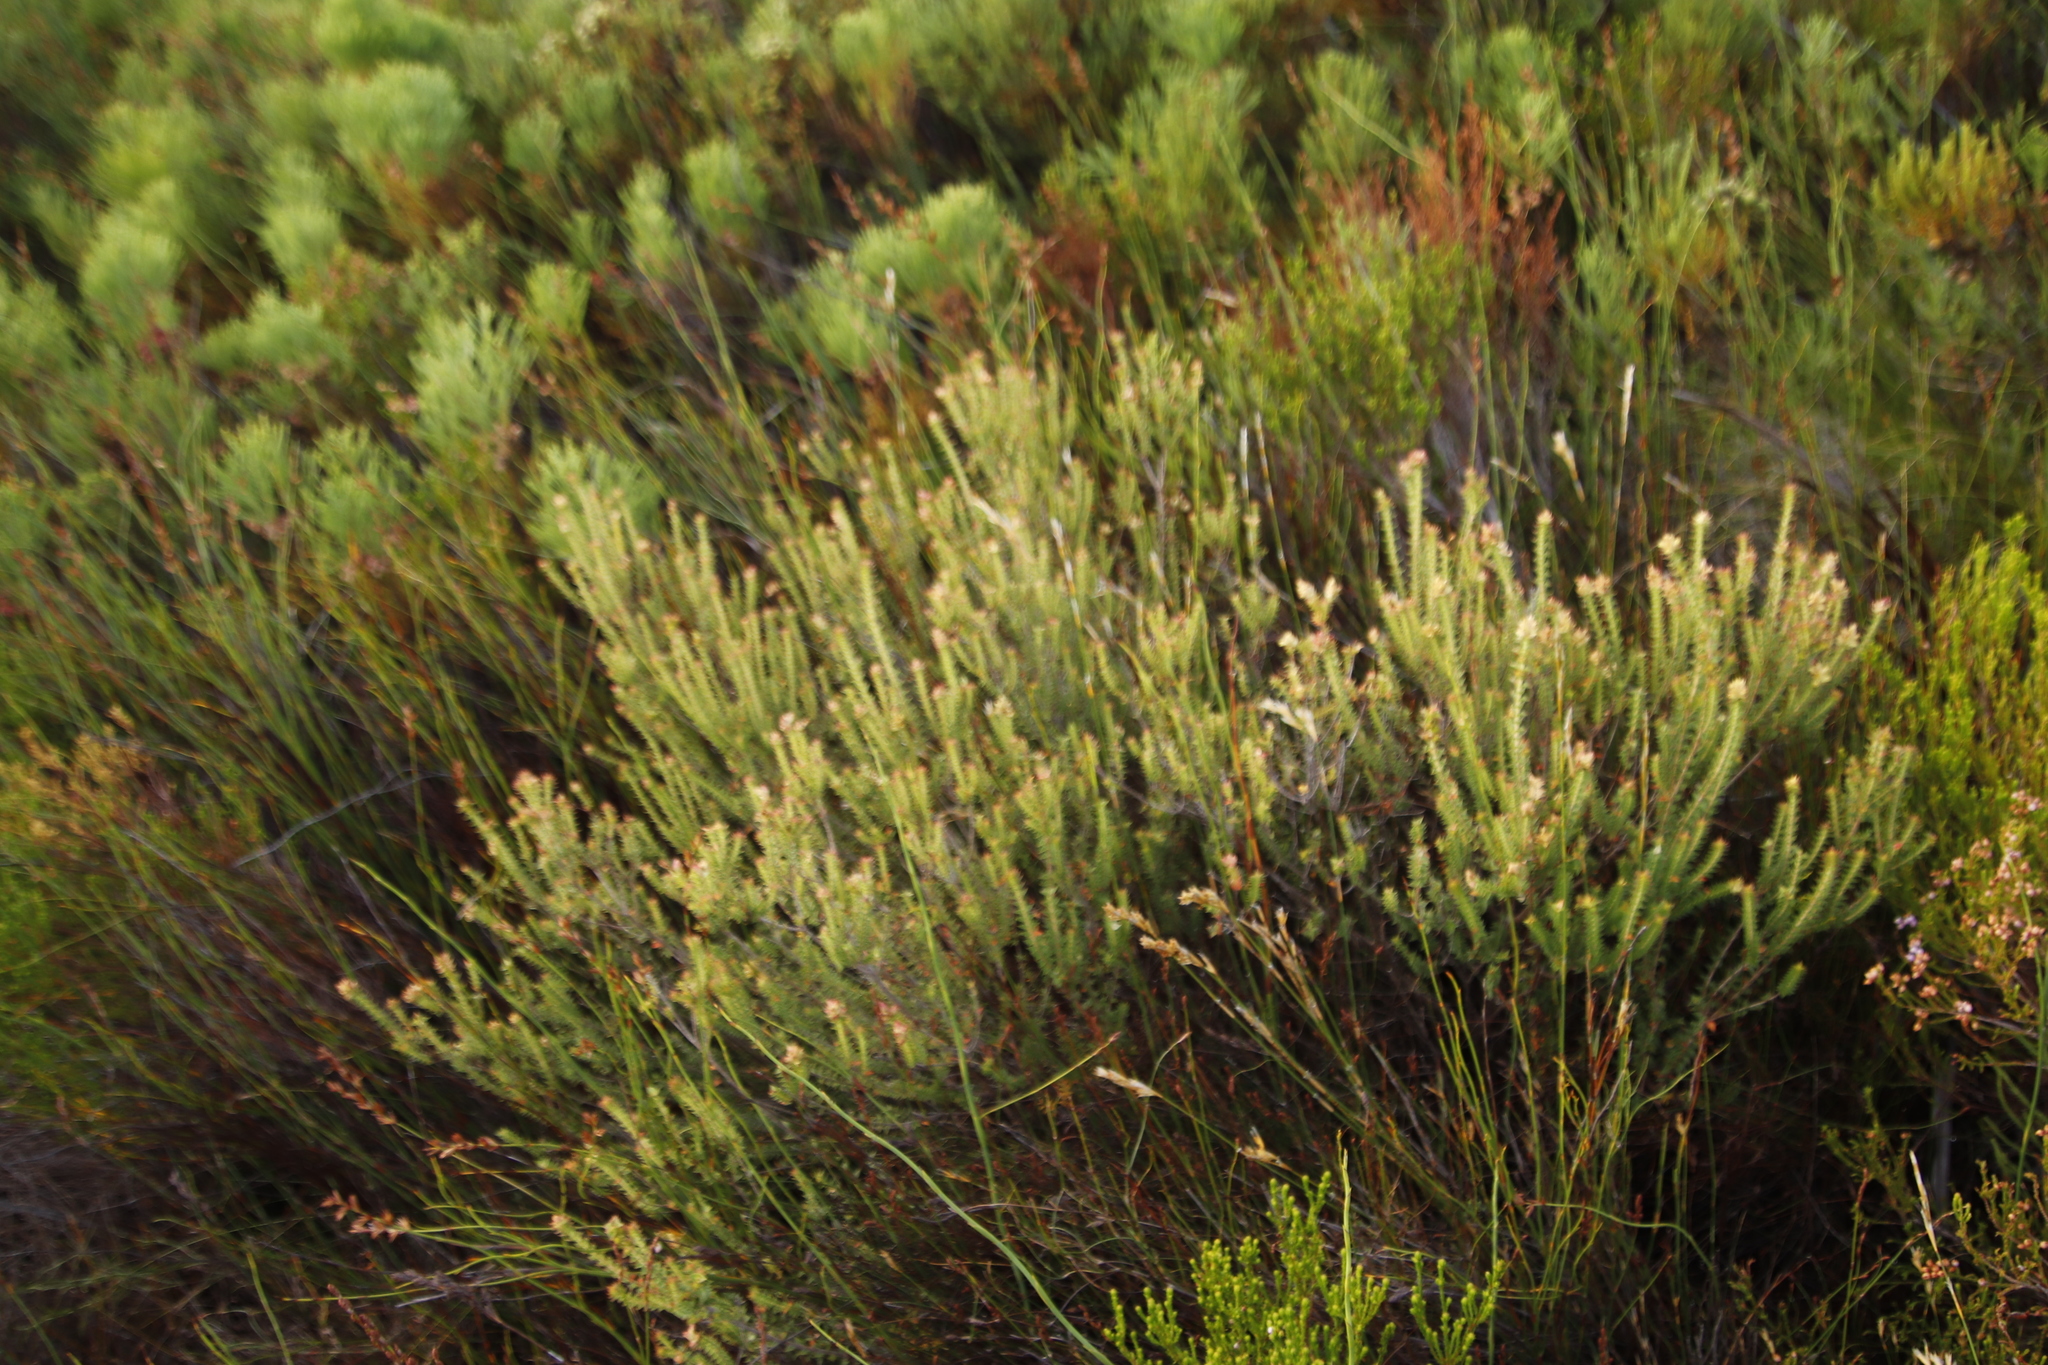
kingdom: Plantae
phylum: Tracheophyta
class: Magnoliopsida
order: Myrtales
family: Penaeaceae
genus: Penaea
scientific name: Penaea mucronata
